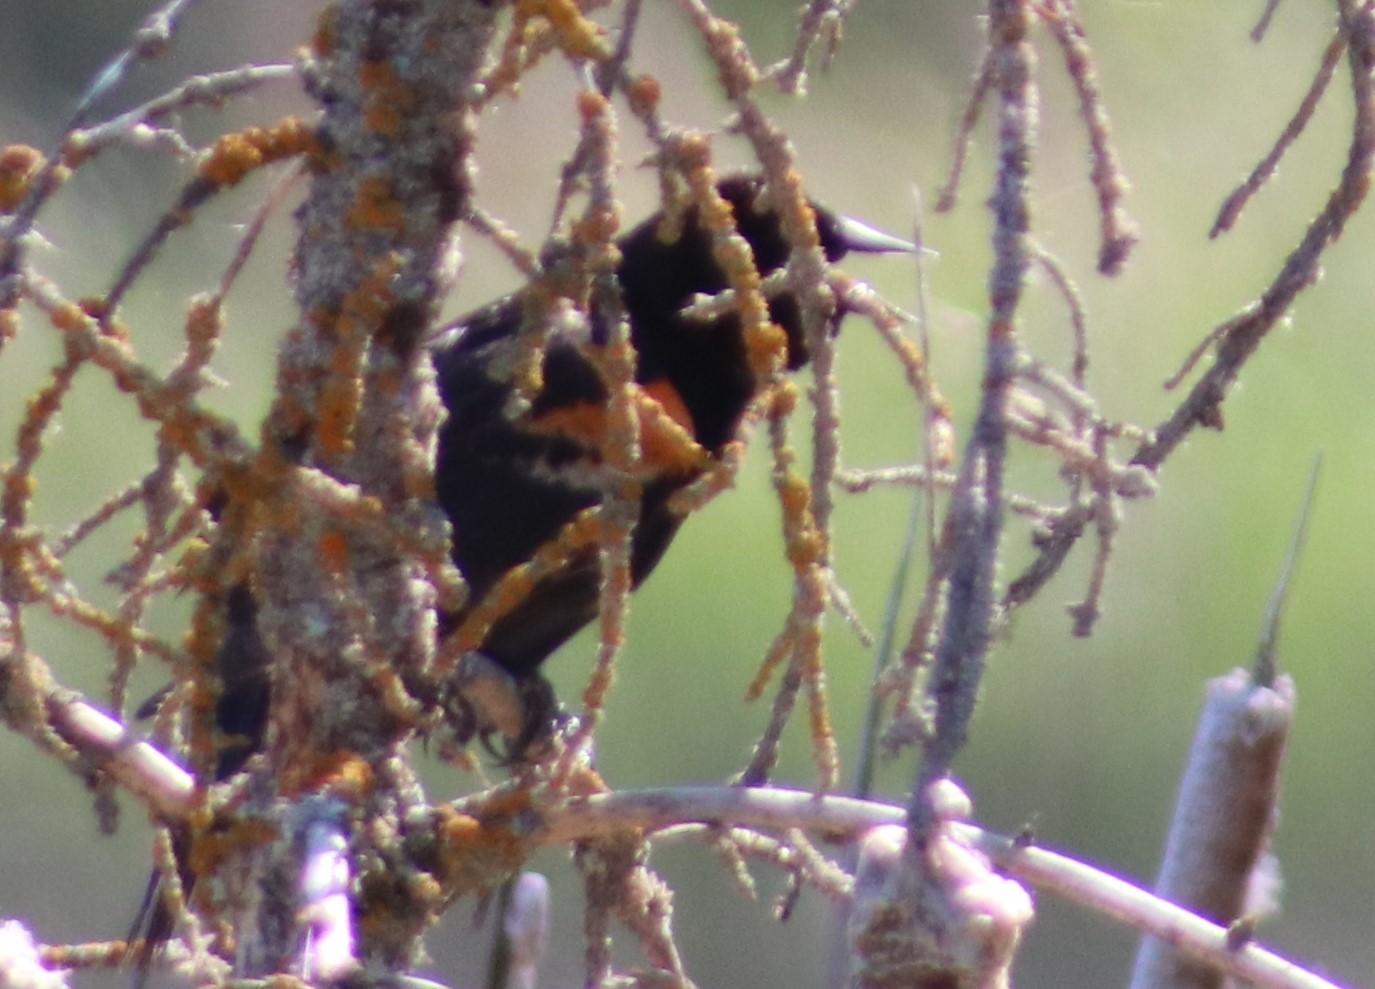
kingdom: Animalia
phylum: Chordata
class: Aves
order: Passeriformes
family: Icteridae
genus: Agelaius
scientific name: Agelaius phoeniceus
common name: Red-winged blackbird
